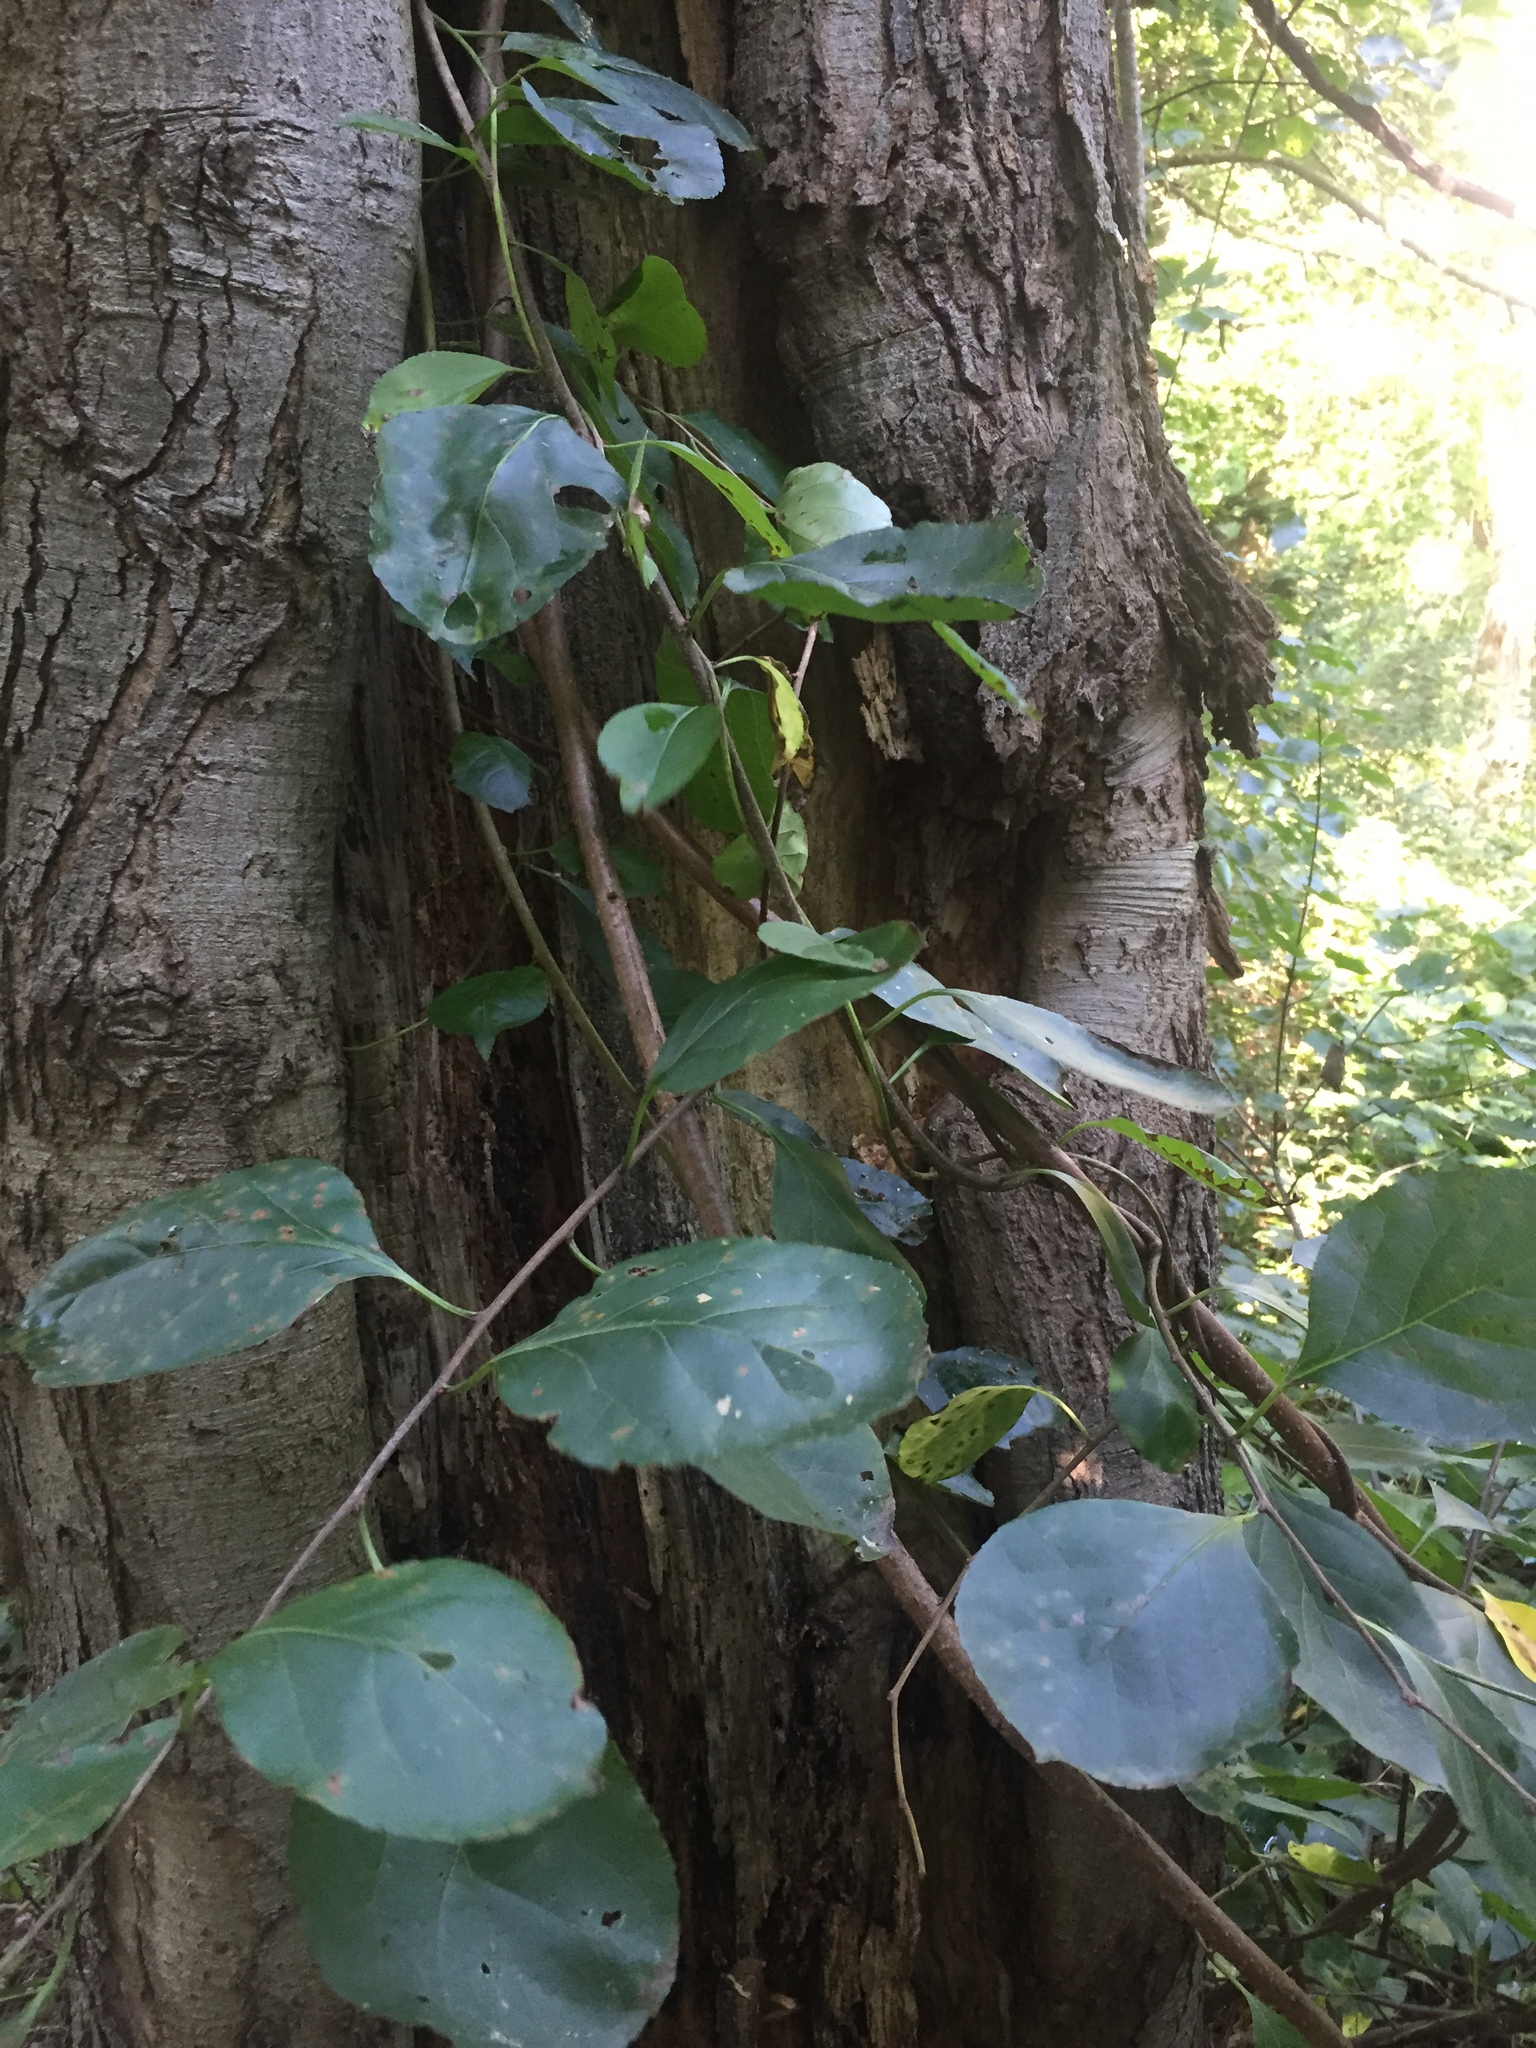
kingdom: Plantae
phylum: Tracheophyta
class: Magnoliopsida
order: Celastrales
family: Celastraceae
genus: Celastrus
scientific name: Celastrus orbiculatus
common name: Oriental bittersweet
